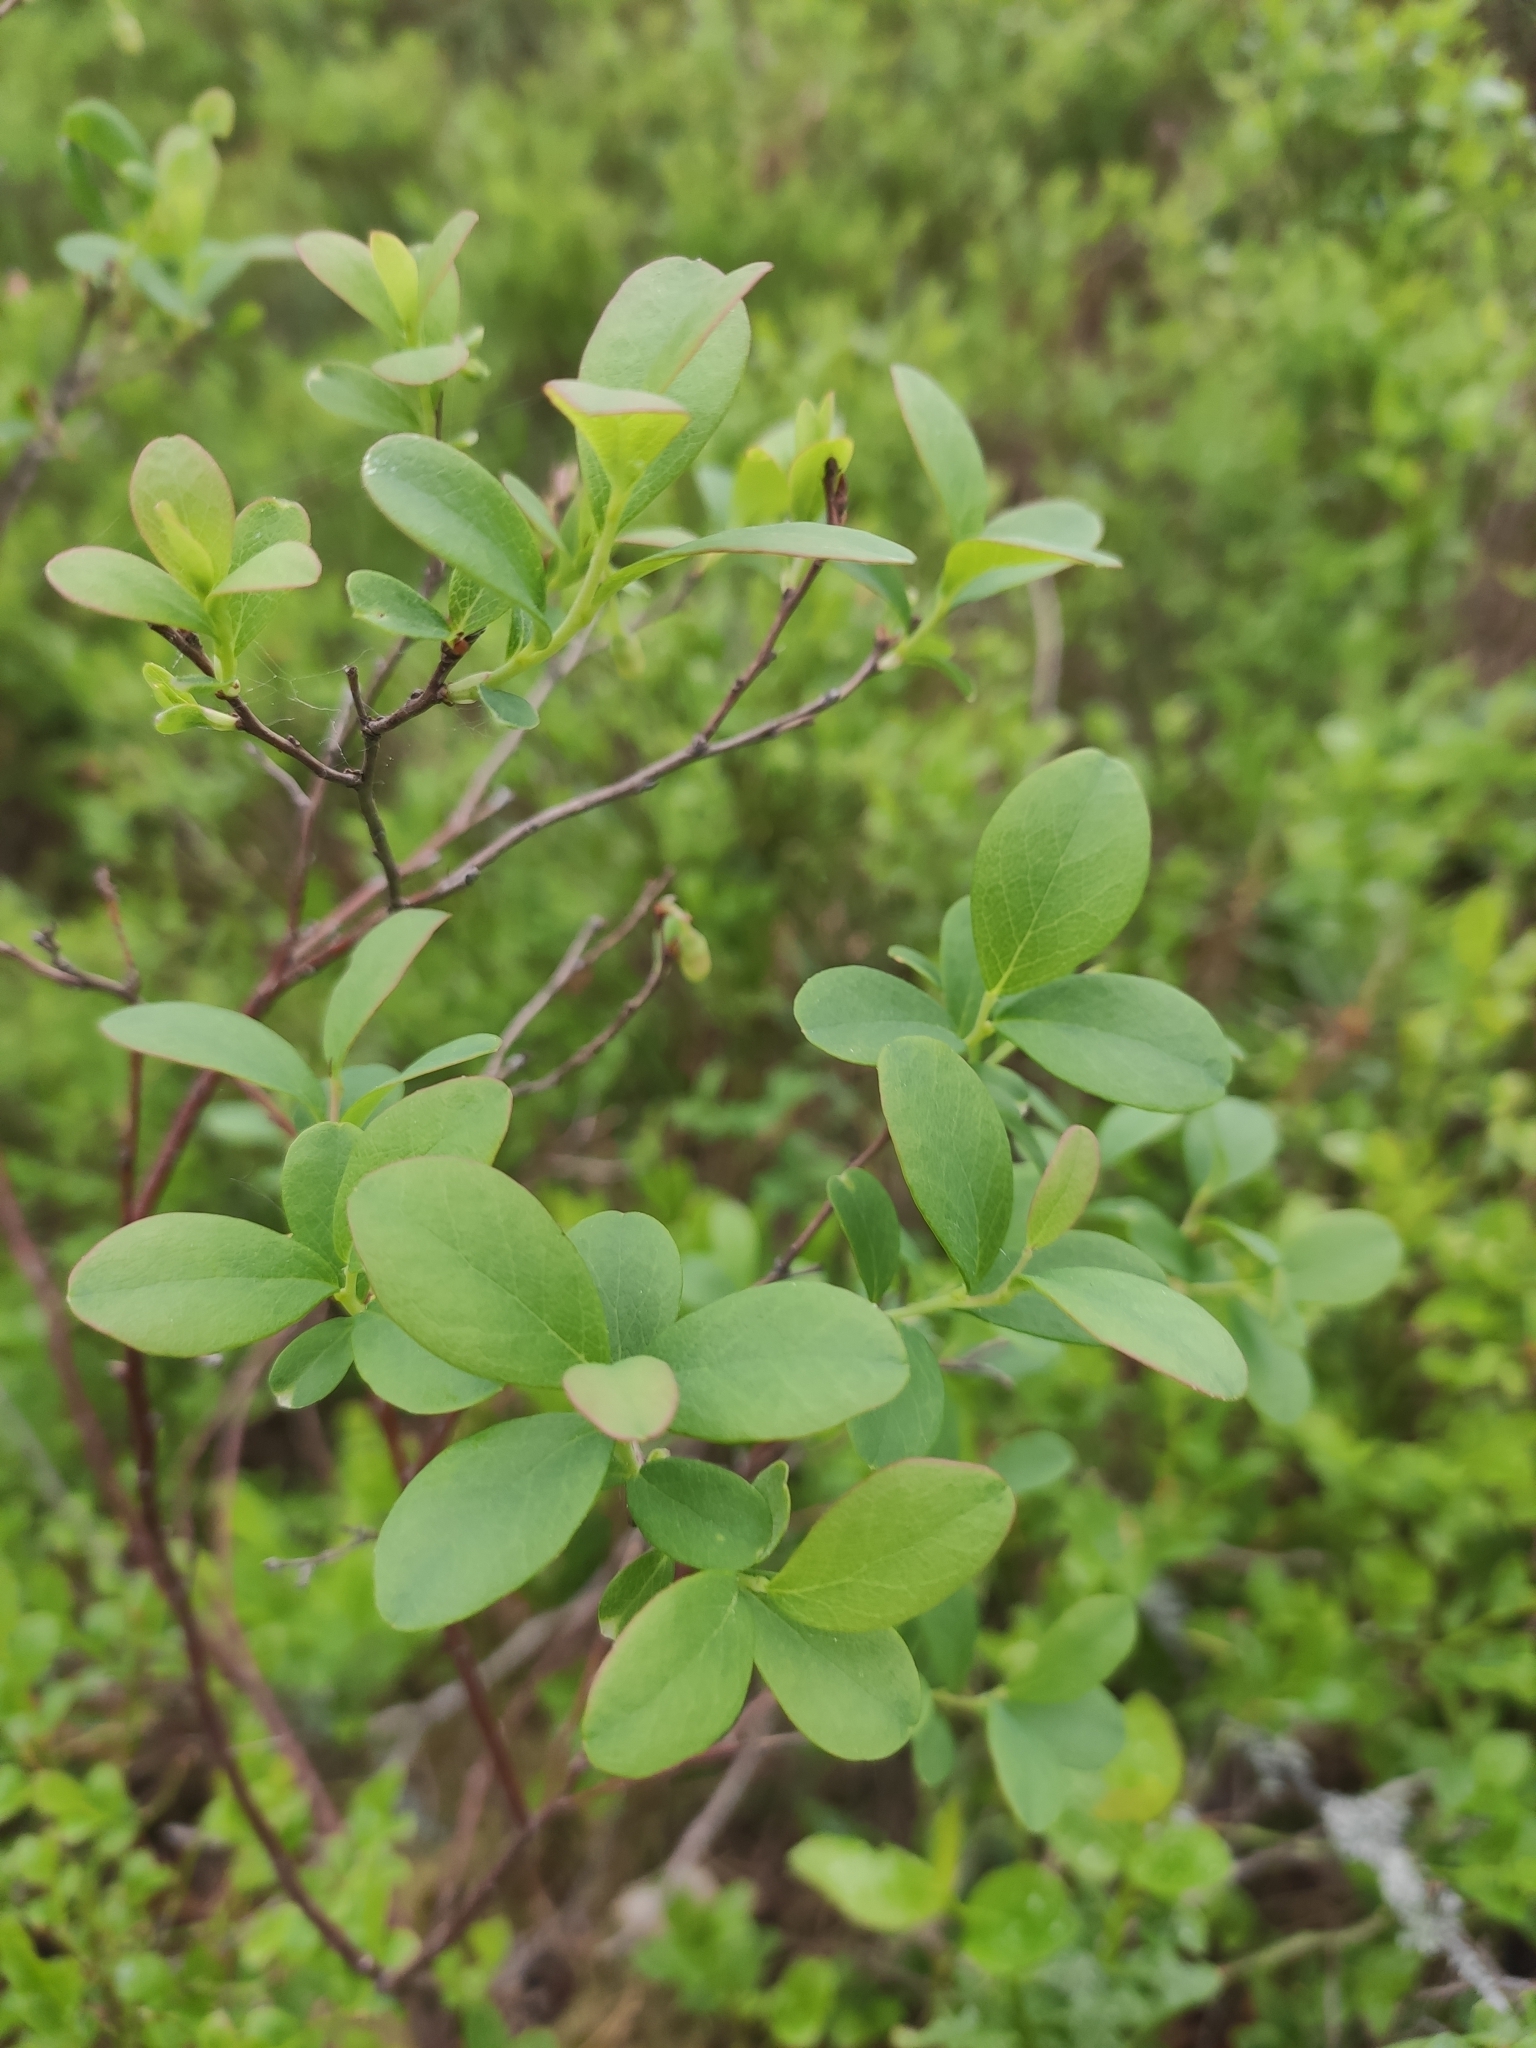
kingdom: Plantae
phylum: Tracheophyta
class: Magnoliopsida
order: Ericales
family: Ericaceae
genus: Vaccinium
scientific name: Vaccinium uliginosum
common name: Bog bilberry
